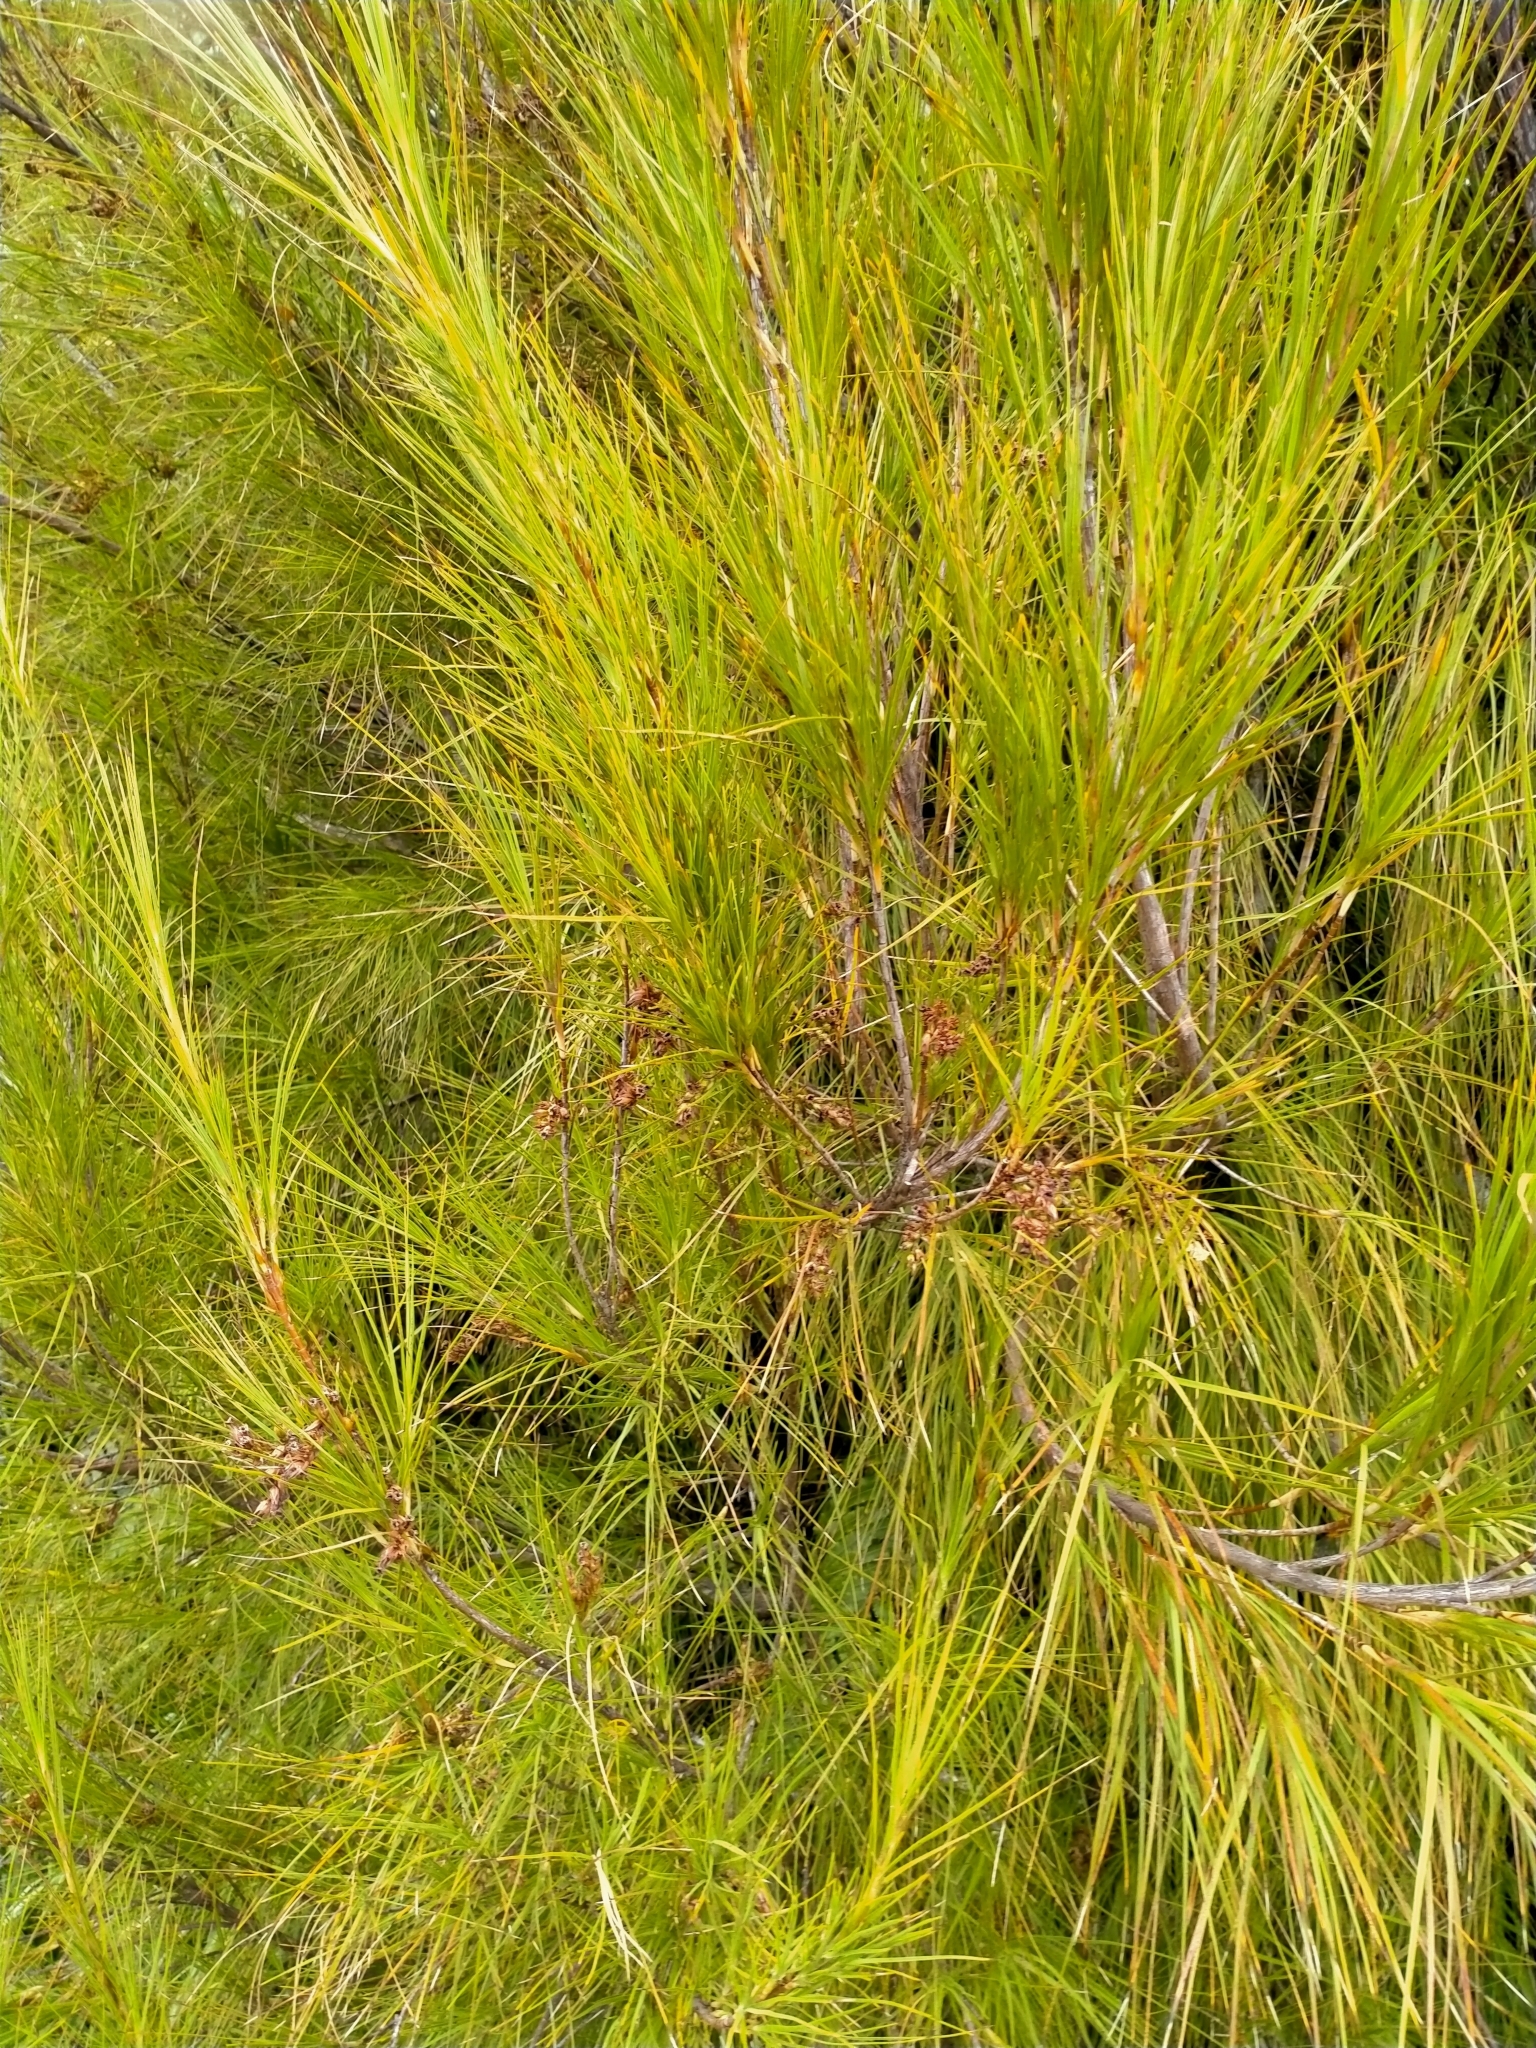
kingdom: Plantae
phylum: Tracheophyta
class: Magnoliopsida
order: Ericales
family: Ericaceae
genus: Dracophyllum
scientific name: Dracophyllum longifolium
